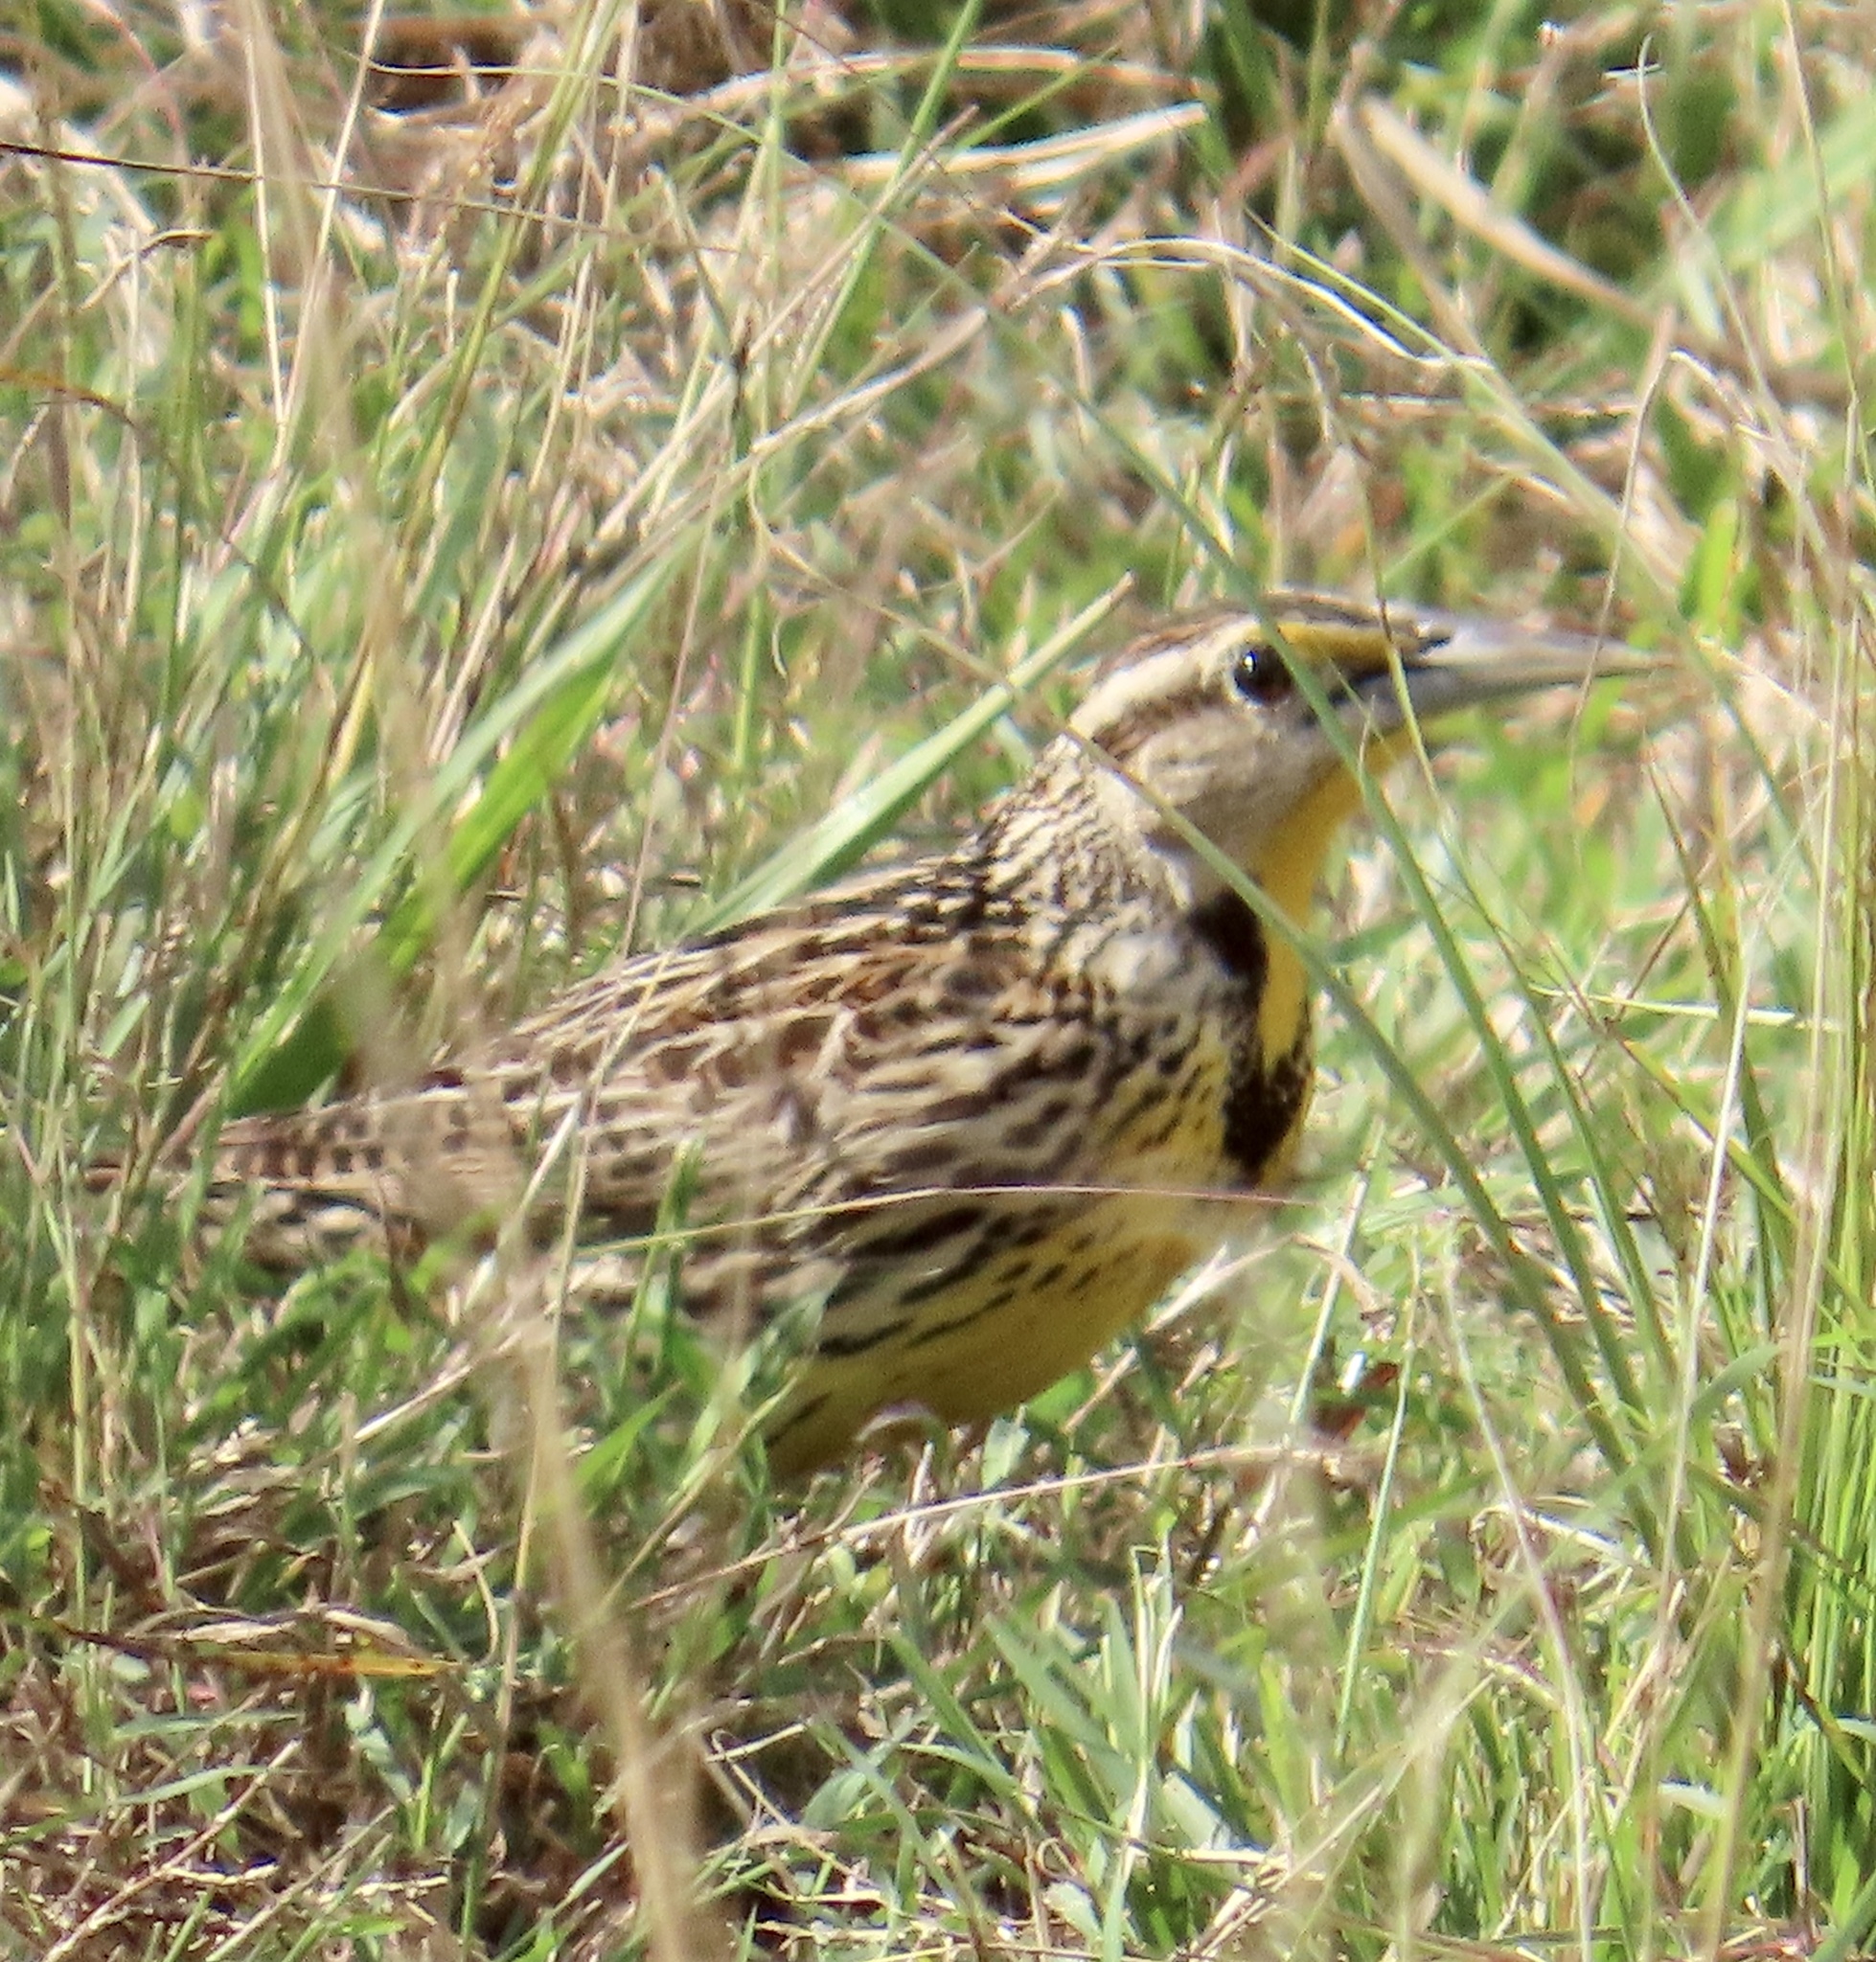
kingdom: Animalia
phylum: Chordata
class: Aves
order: Passeriformes
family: Icteridae
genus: Sturnella
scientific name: Sturnella magna
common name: Eastern meadowlark
